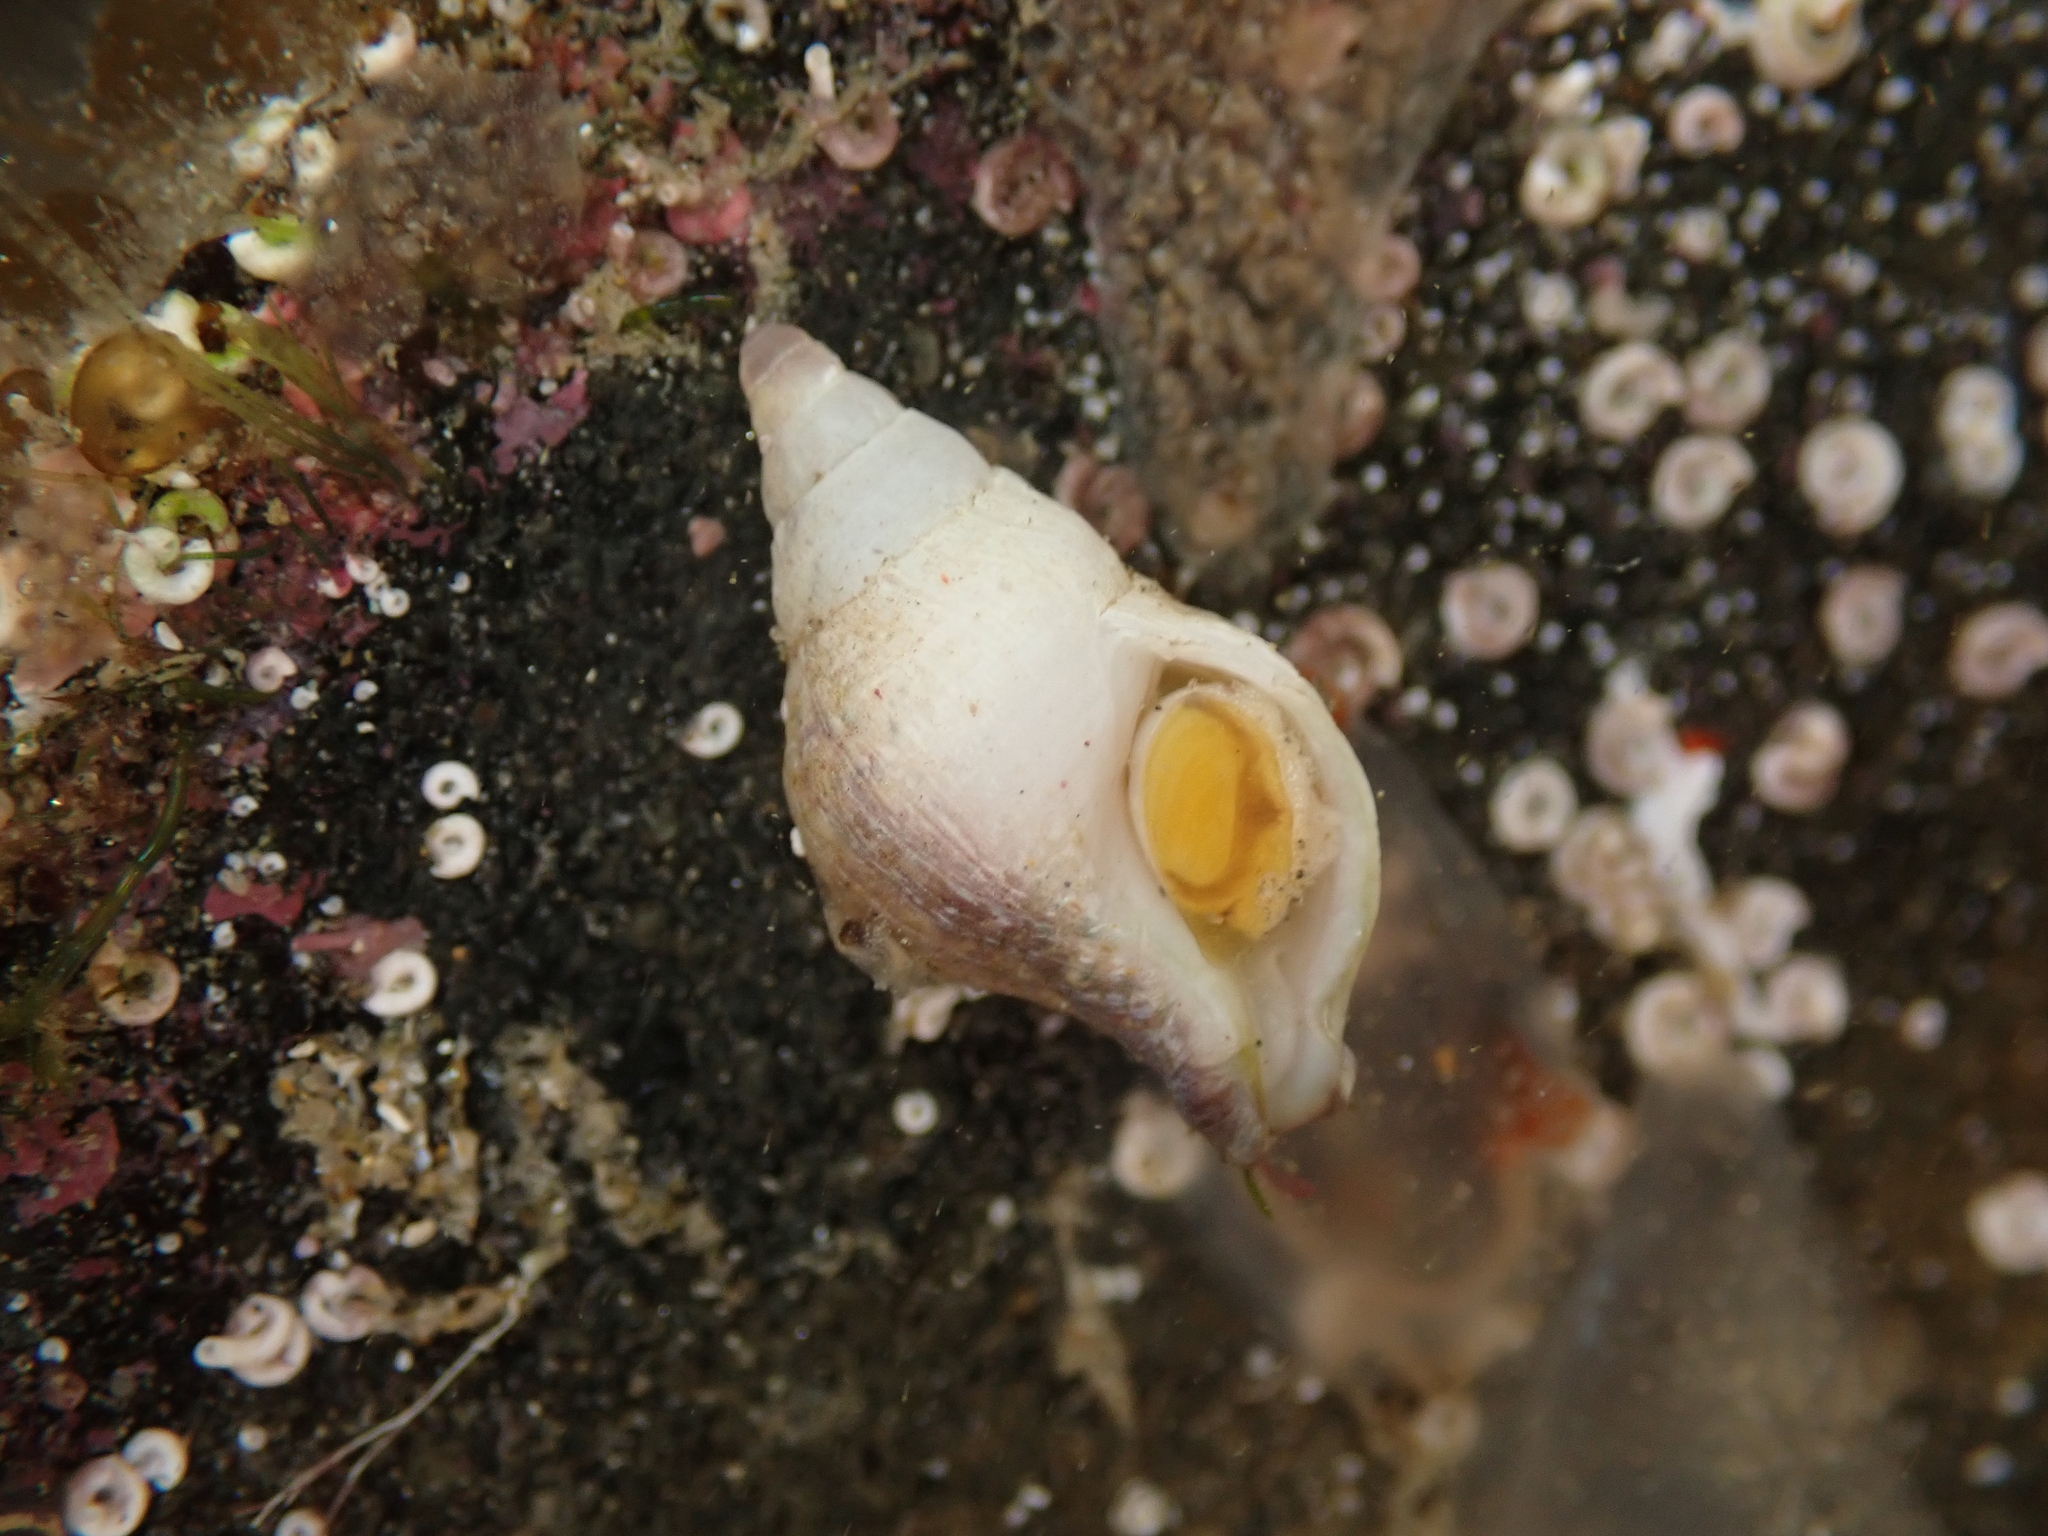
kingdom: Animalia
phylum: Mollusca
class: Gastropoda
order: Neogastropoda
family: Tudiclidae
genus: Buccinulum
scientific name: Buccinulum pertinax
